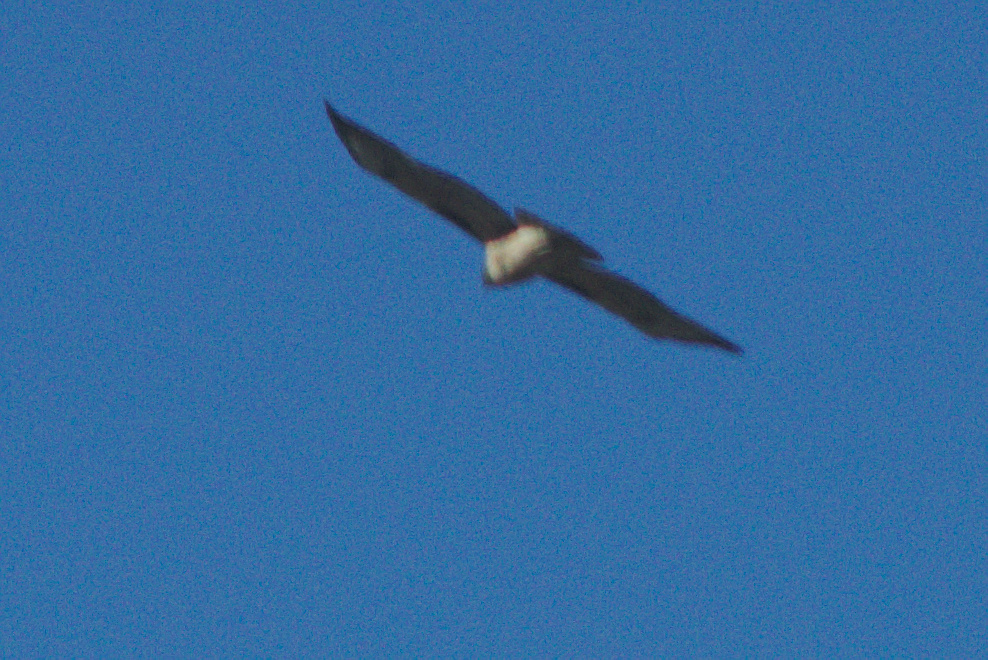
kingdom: Animalia
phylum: Chordata
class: Aves
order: Accipitriformes
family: Accipitridae
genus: Buteo
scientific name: Buteo jamaicensis
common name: Red-tailed hawk
